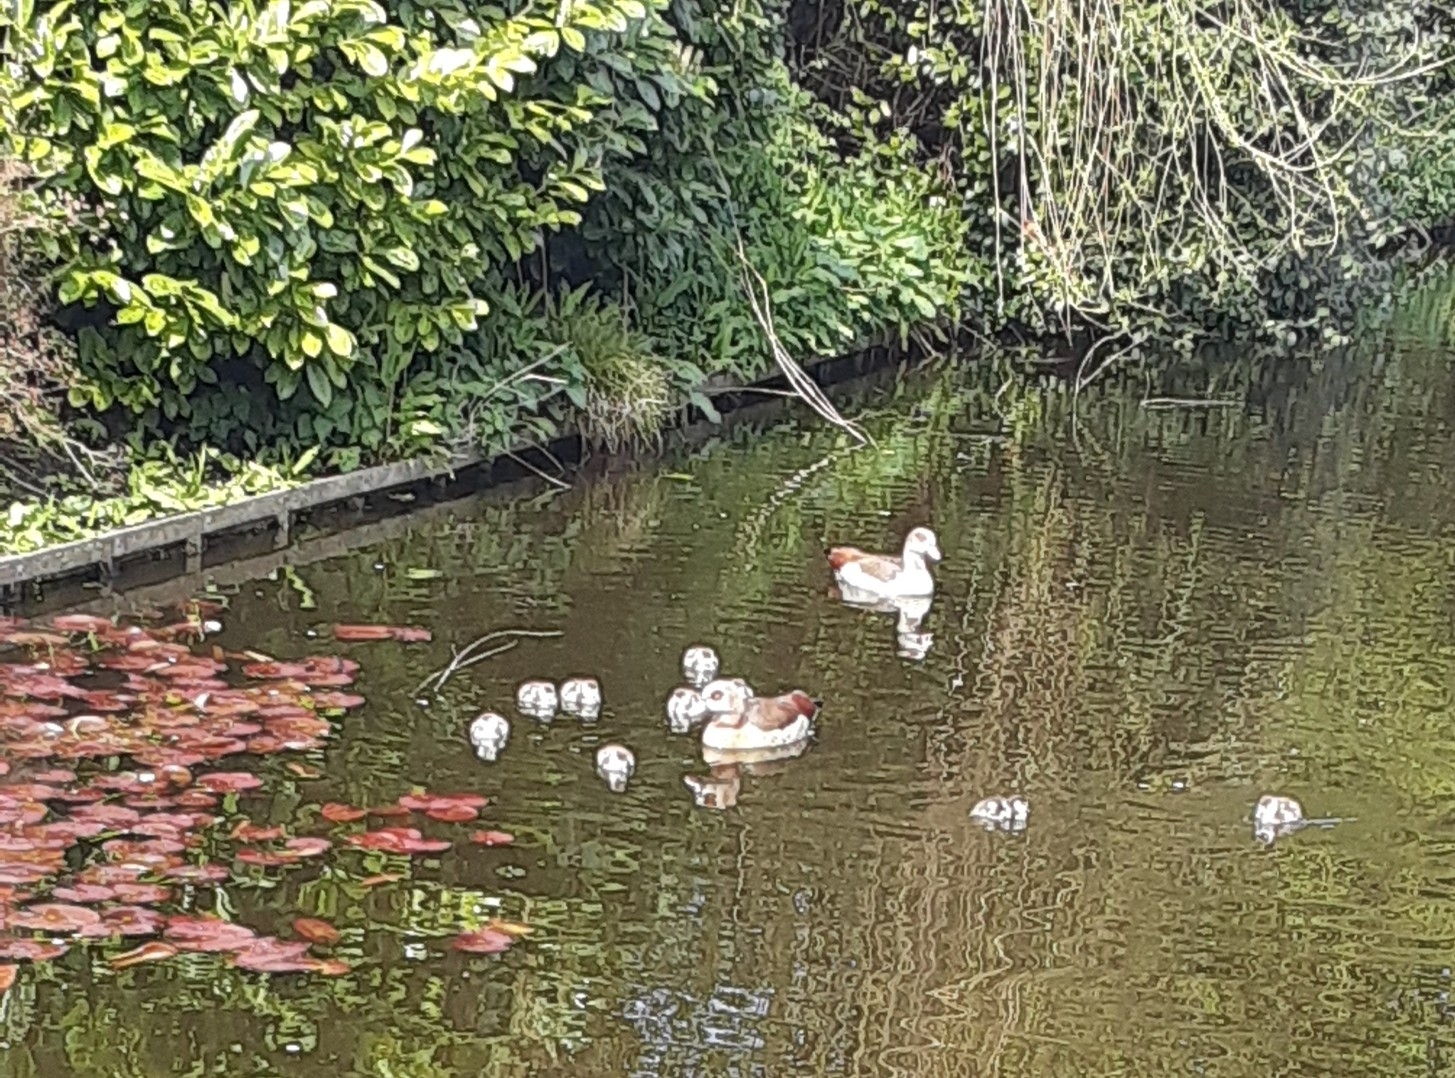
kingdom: Animalia
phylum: Chordata
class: Aves
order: Anseriformes
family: Anatidae
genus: Alopochen
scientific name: Alopochen aegyptiaca
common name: Egyptian goose
